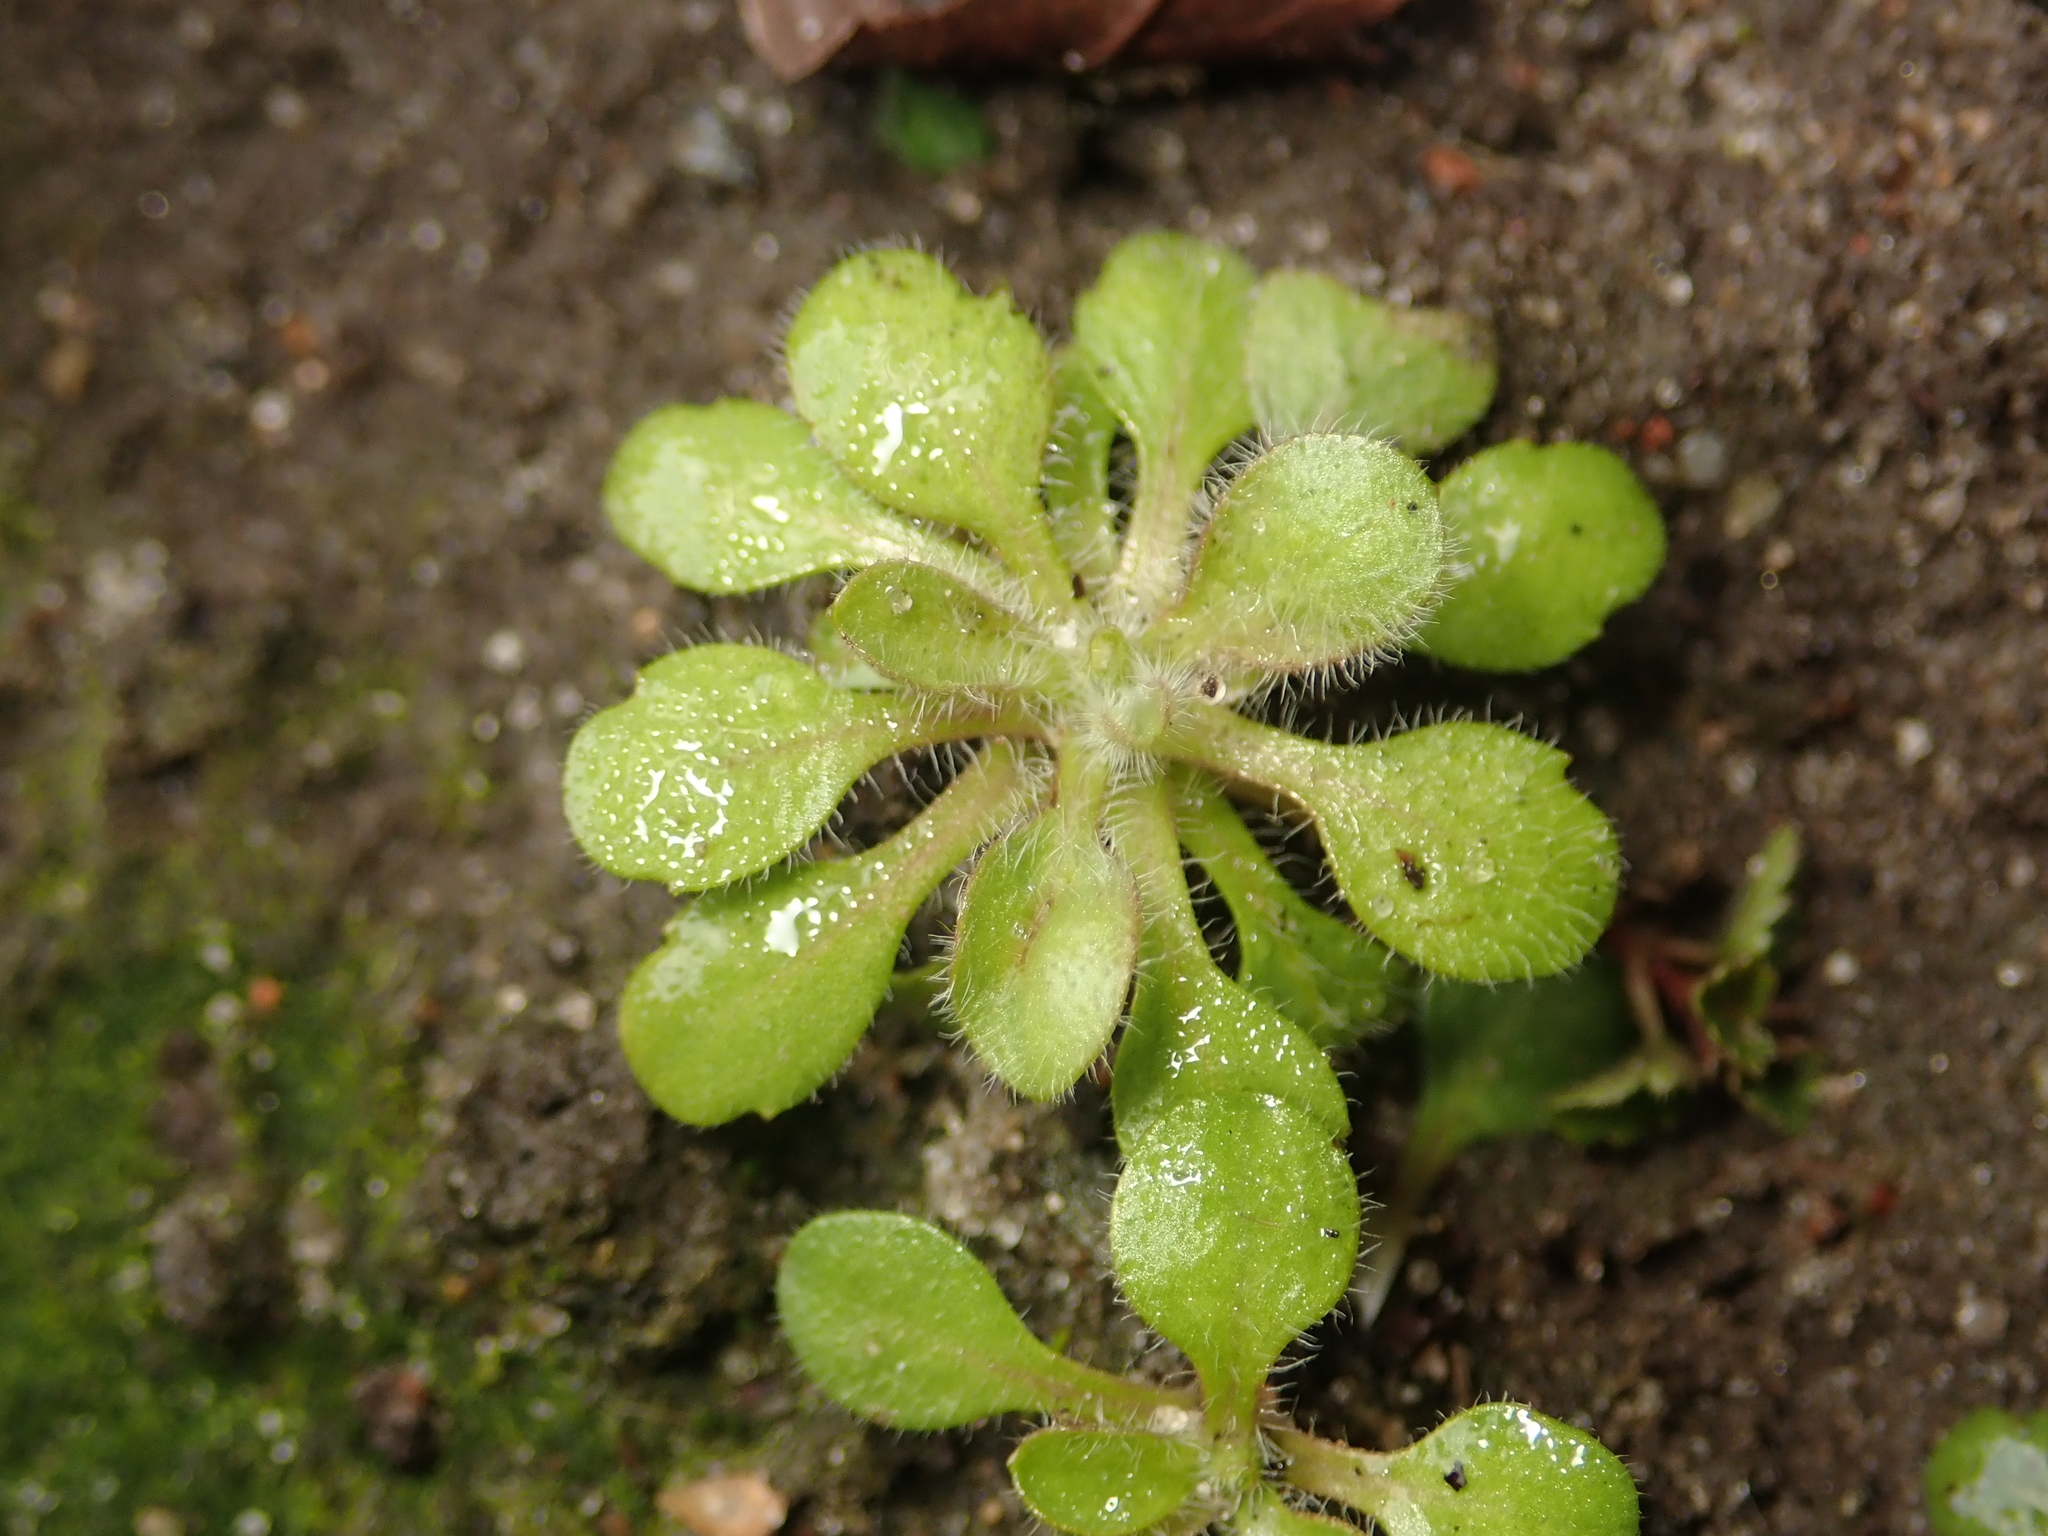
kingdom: Plantae
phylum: Tracheophyta
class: Magnoliopsida
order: Brassicales
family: Brassicaceae
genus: Arabidopsis
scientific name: Arabidopsis thaliana
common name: Thale cress
